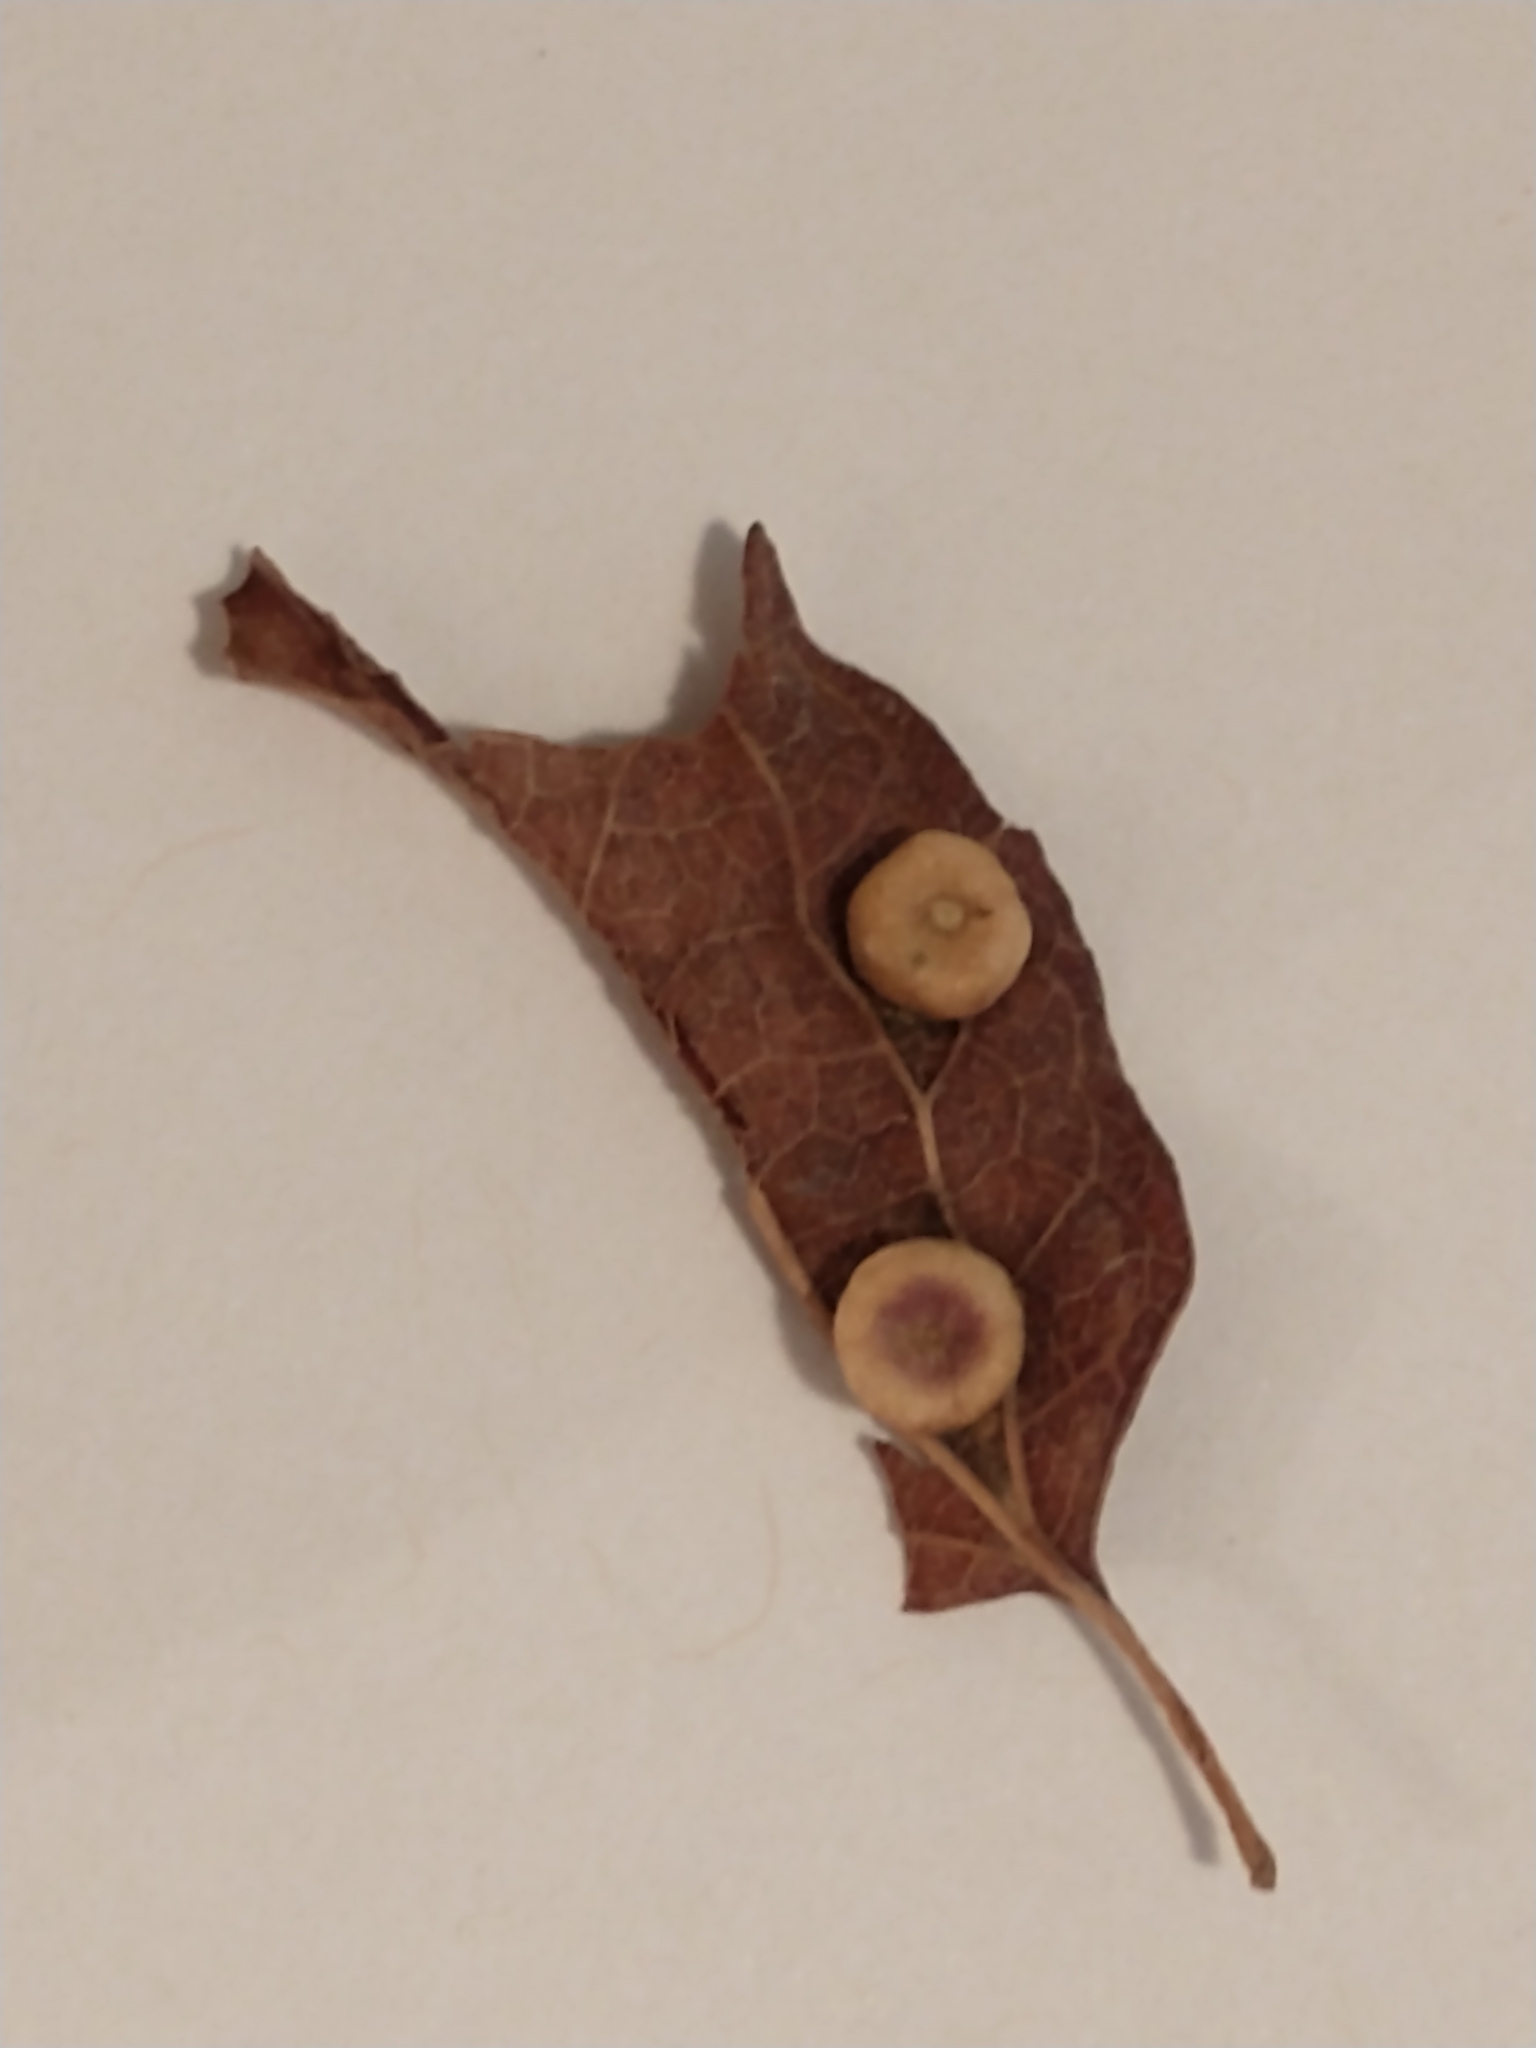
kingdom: Animalia
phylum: Arthropoda
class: Insecta
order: Hemiptera
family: Aphalaridae
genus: Pachypsylla
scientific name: Pachypsylla celtidismamma
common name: Hackberry nipplegall psyllid
